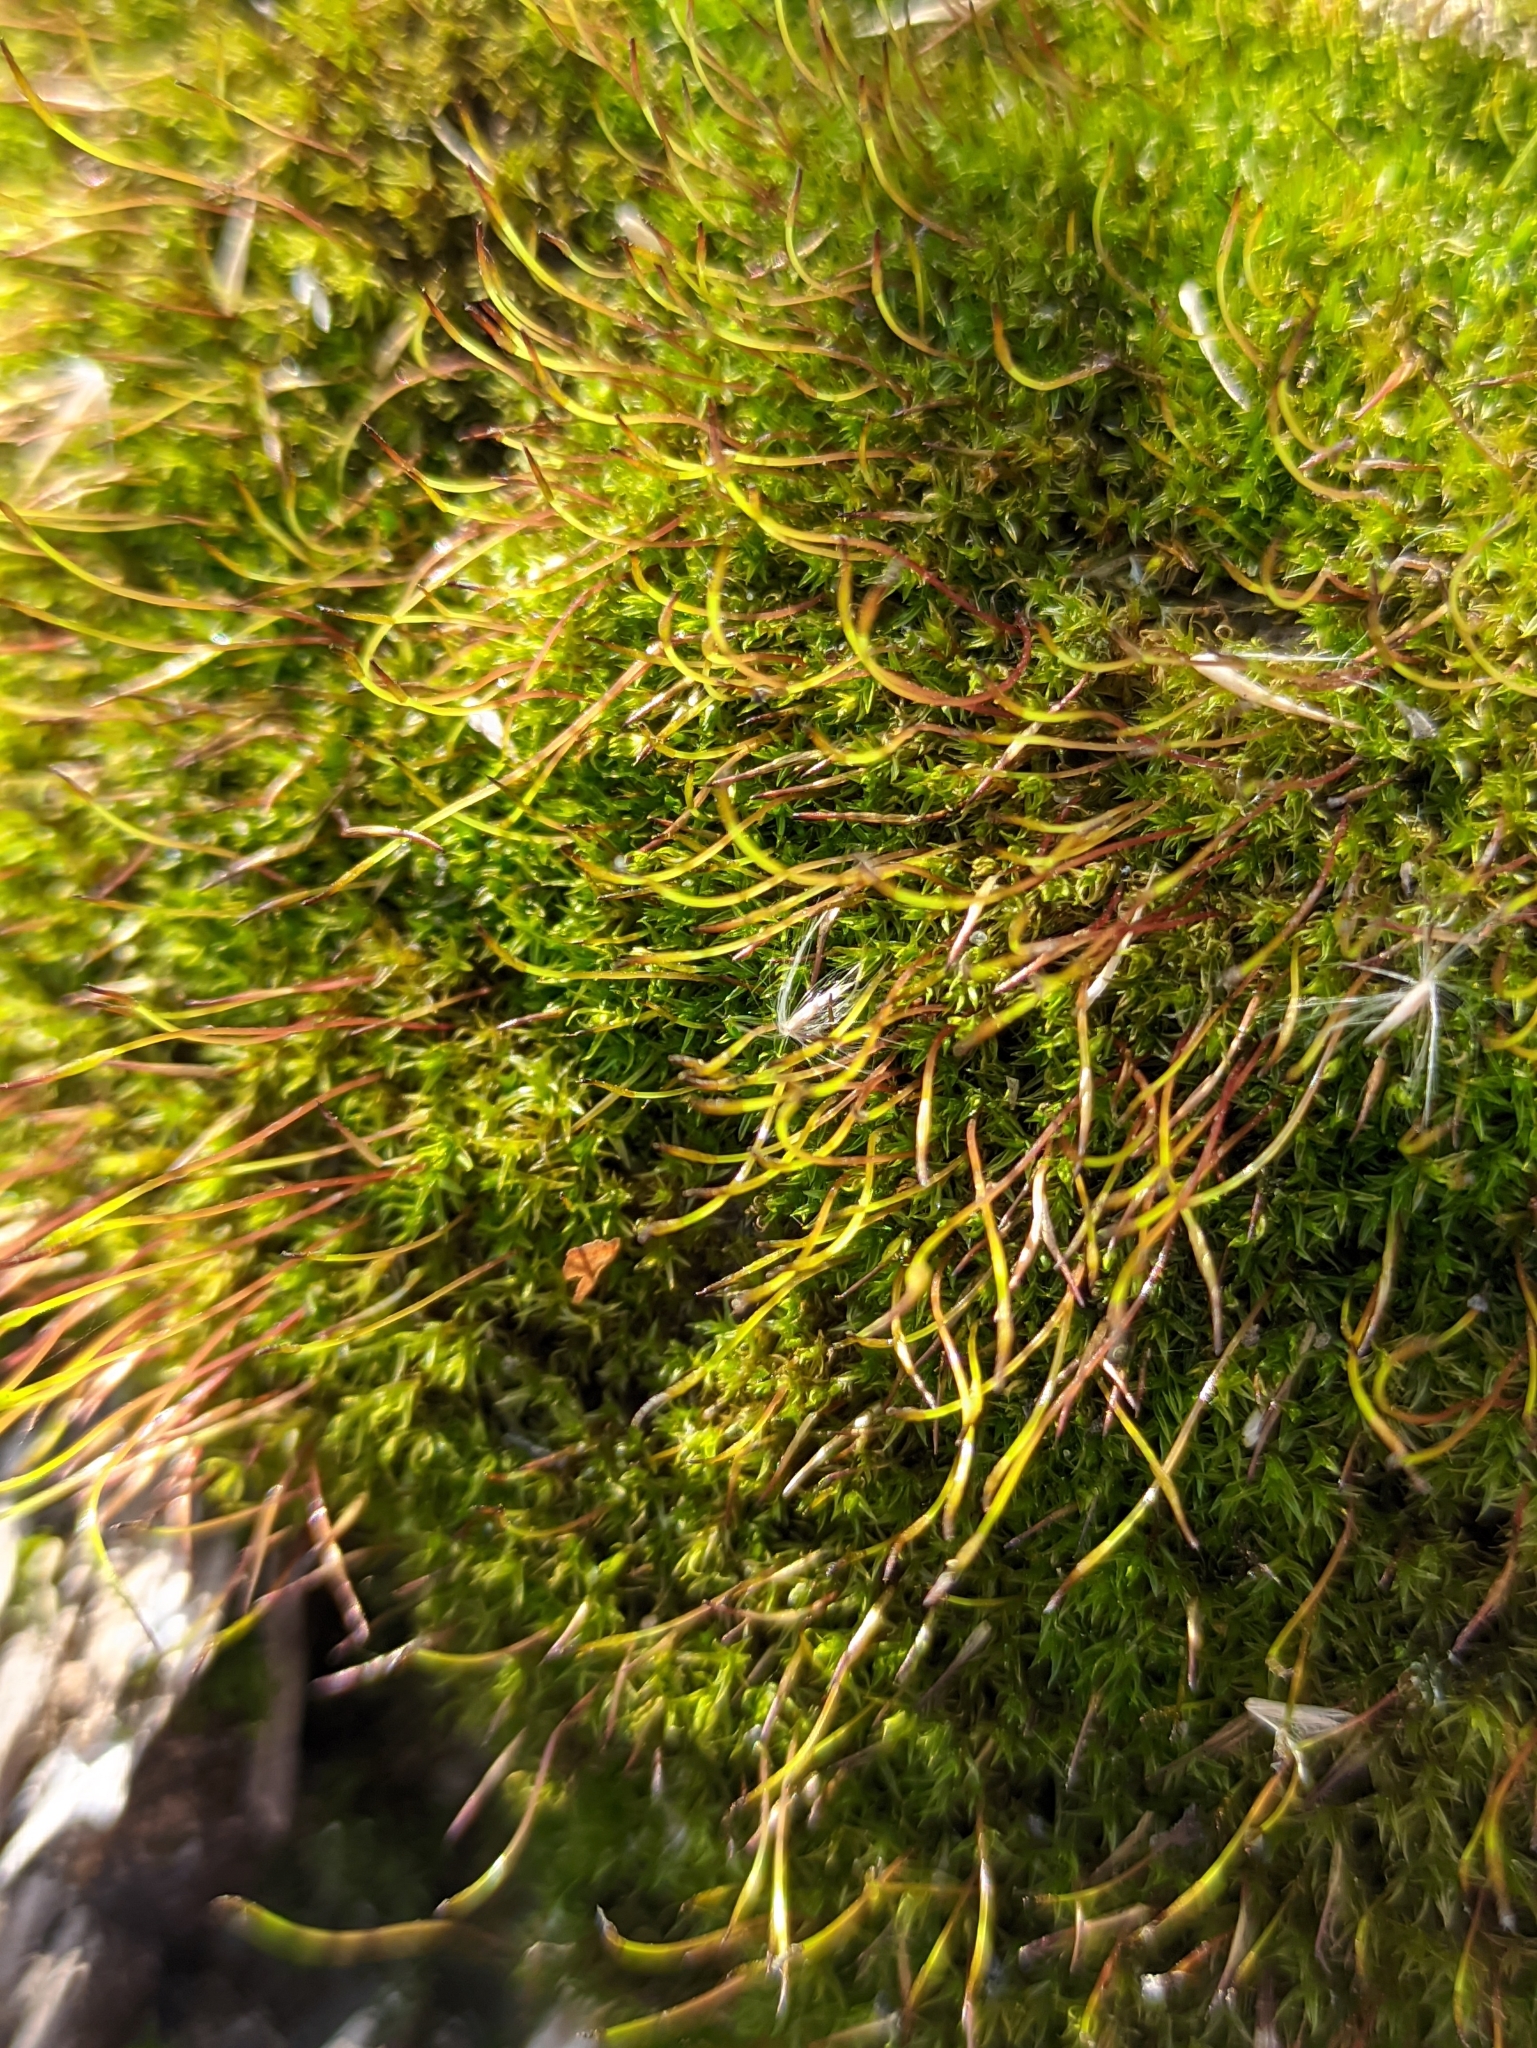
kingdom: Plantae
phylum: Bryophyta
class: Bryopsida
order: Dicranales
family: Ditrichaceae
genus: Ceratodon
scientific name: Ceratodon purpureus
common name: Redshank
